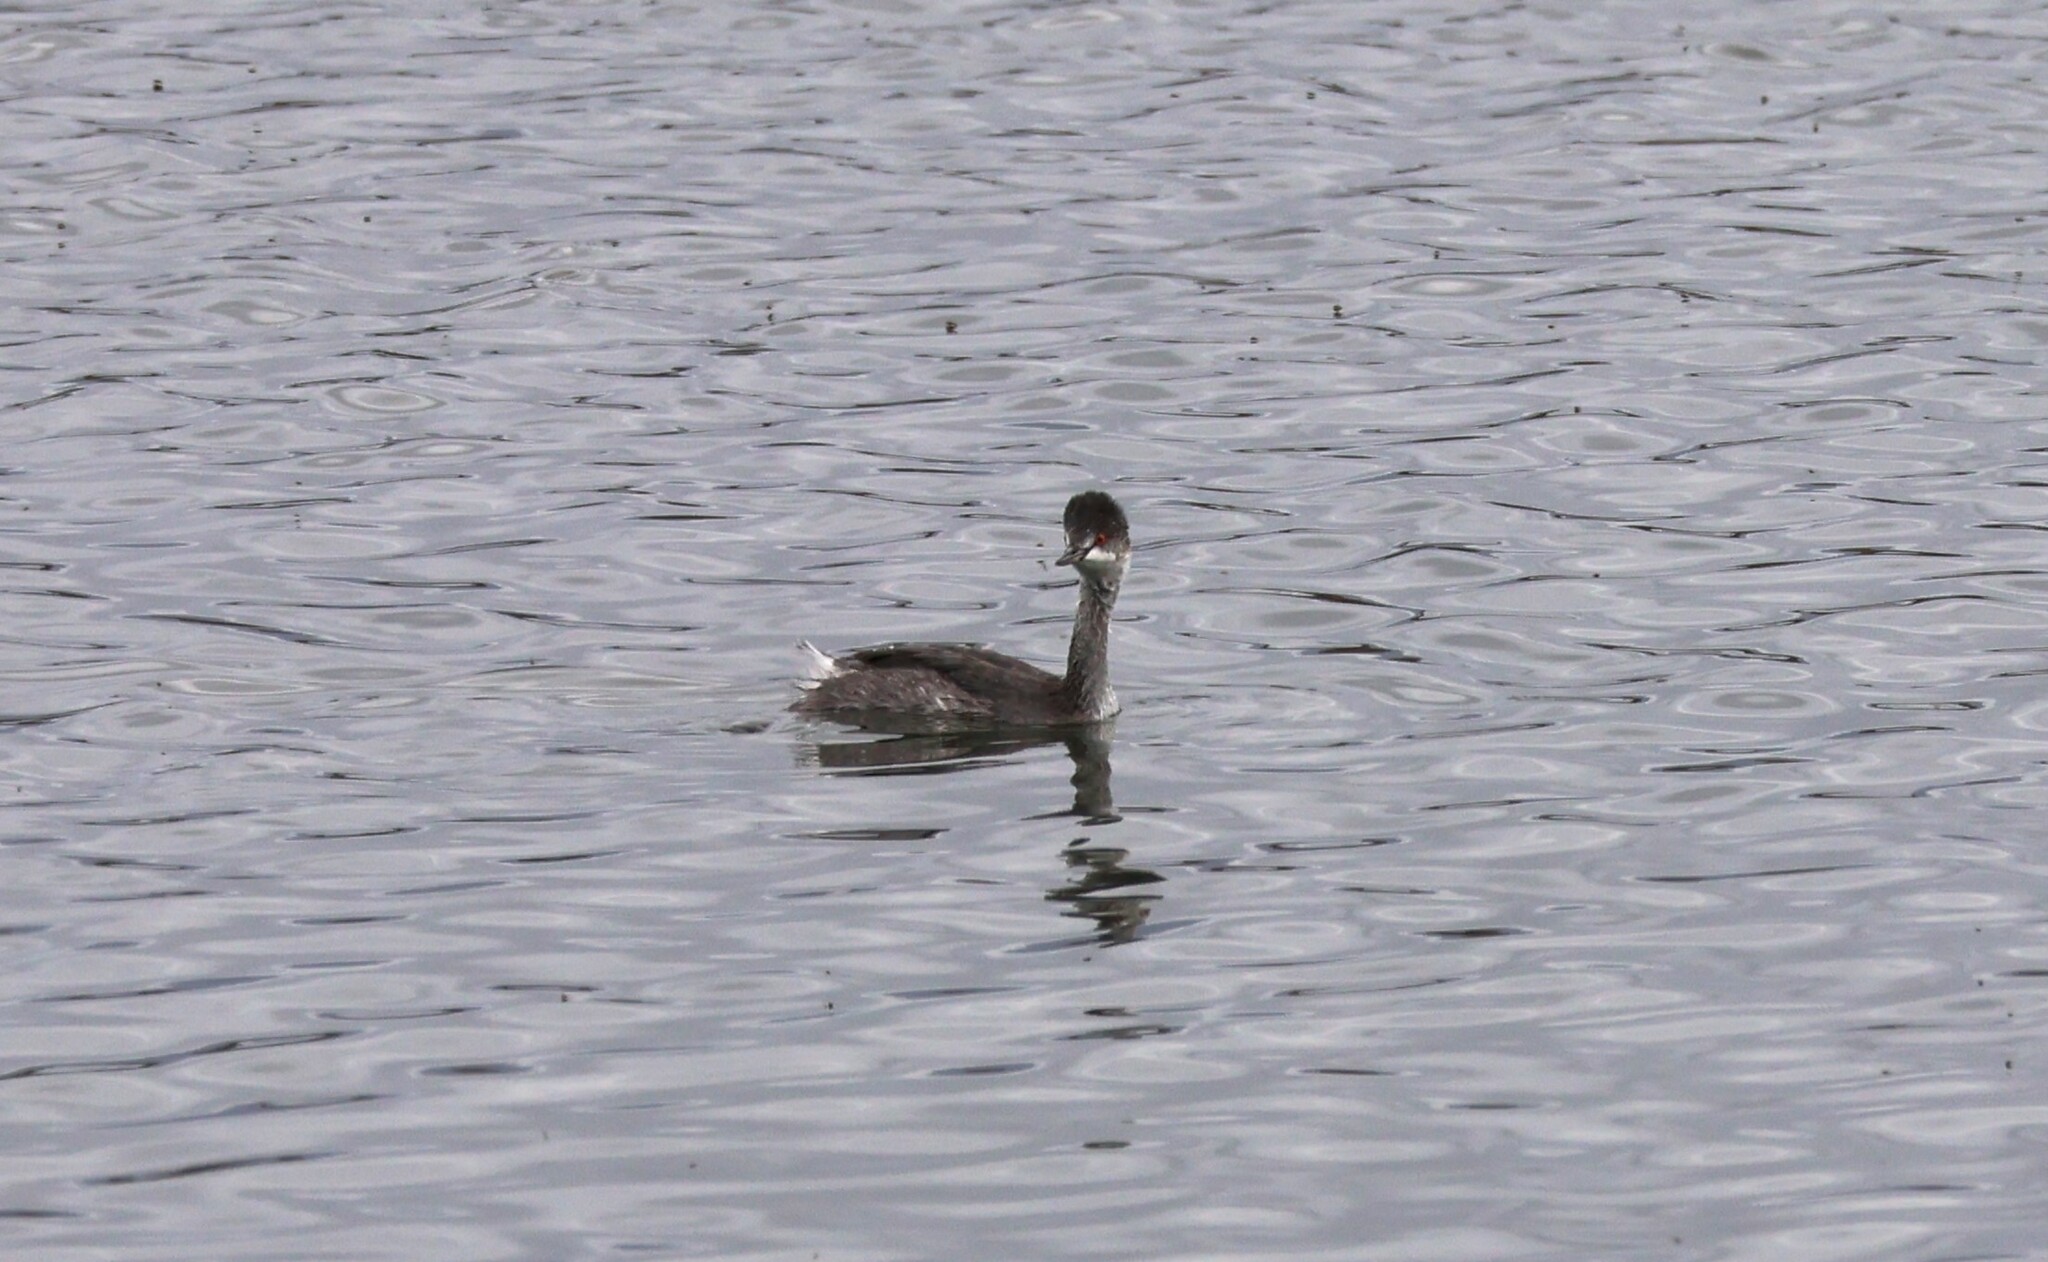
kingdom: Animalia
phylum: Chordata
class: Aves
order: Podicipediformes
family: Podicipedidae
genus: Podiceps
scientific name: Podiceps nigricollis
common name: Black-necked grebe
